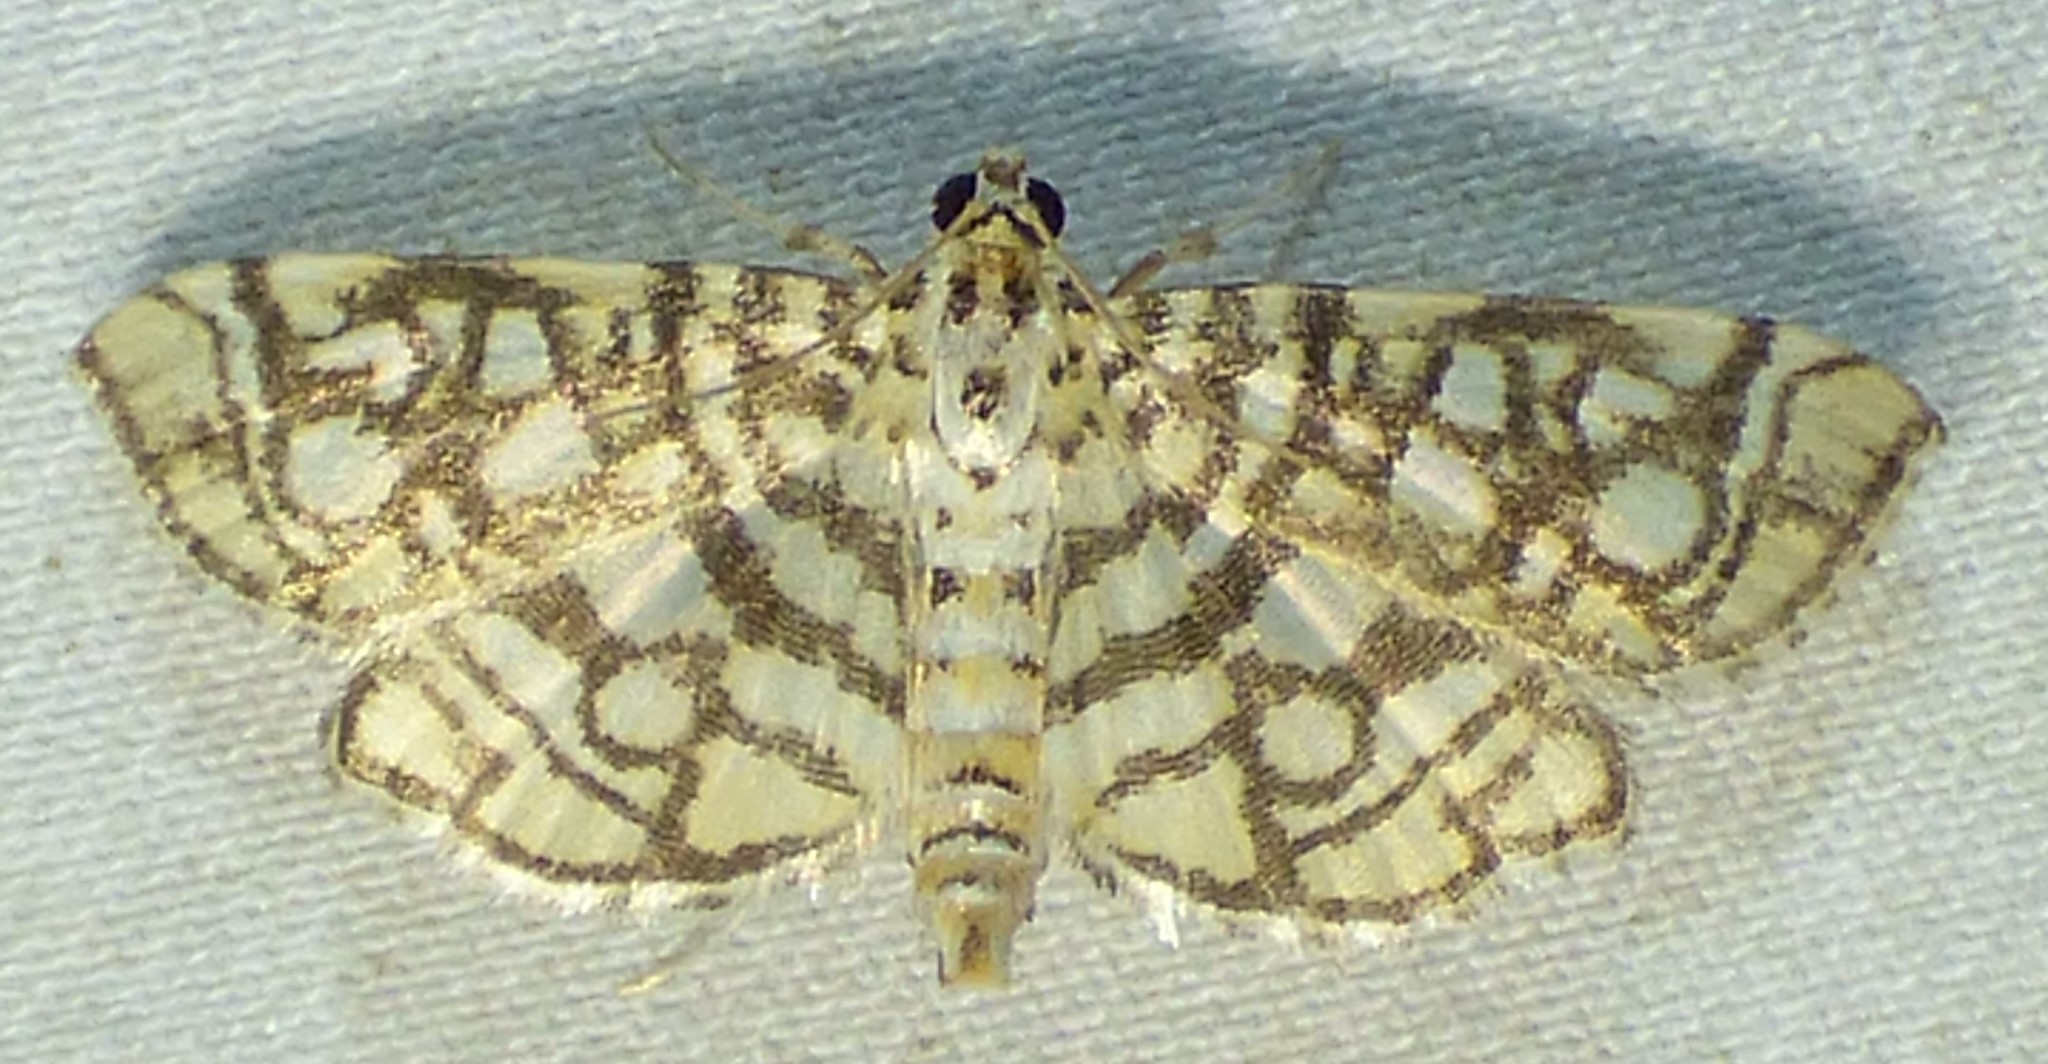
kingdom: Animalia
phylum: Arthropoda
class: Insecta
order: Lepidoptera
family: Crambidae
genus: Lygropia
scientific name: Lygropia rivulalis
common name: Bog lygropia moth
